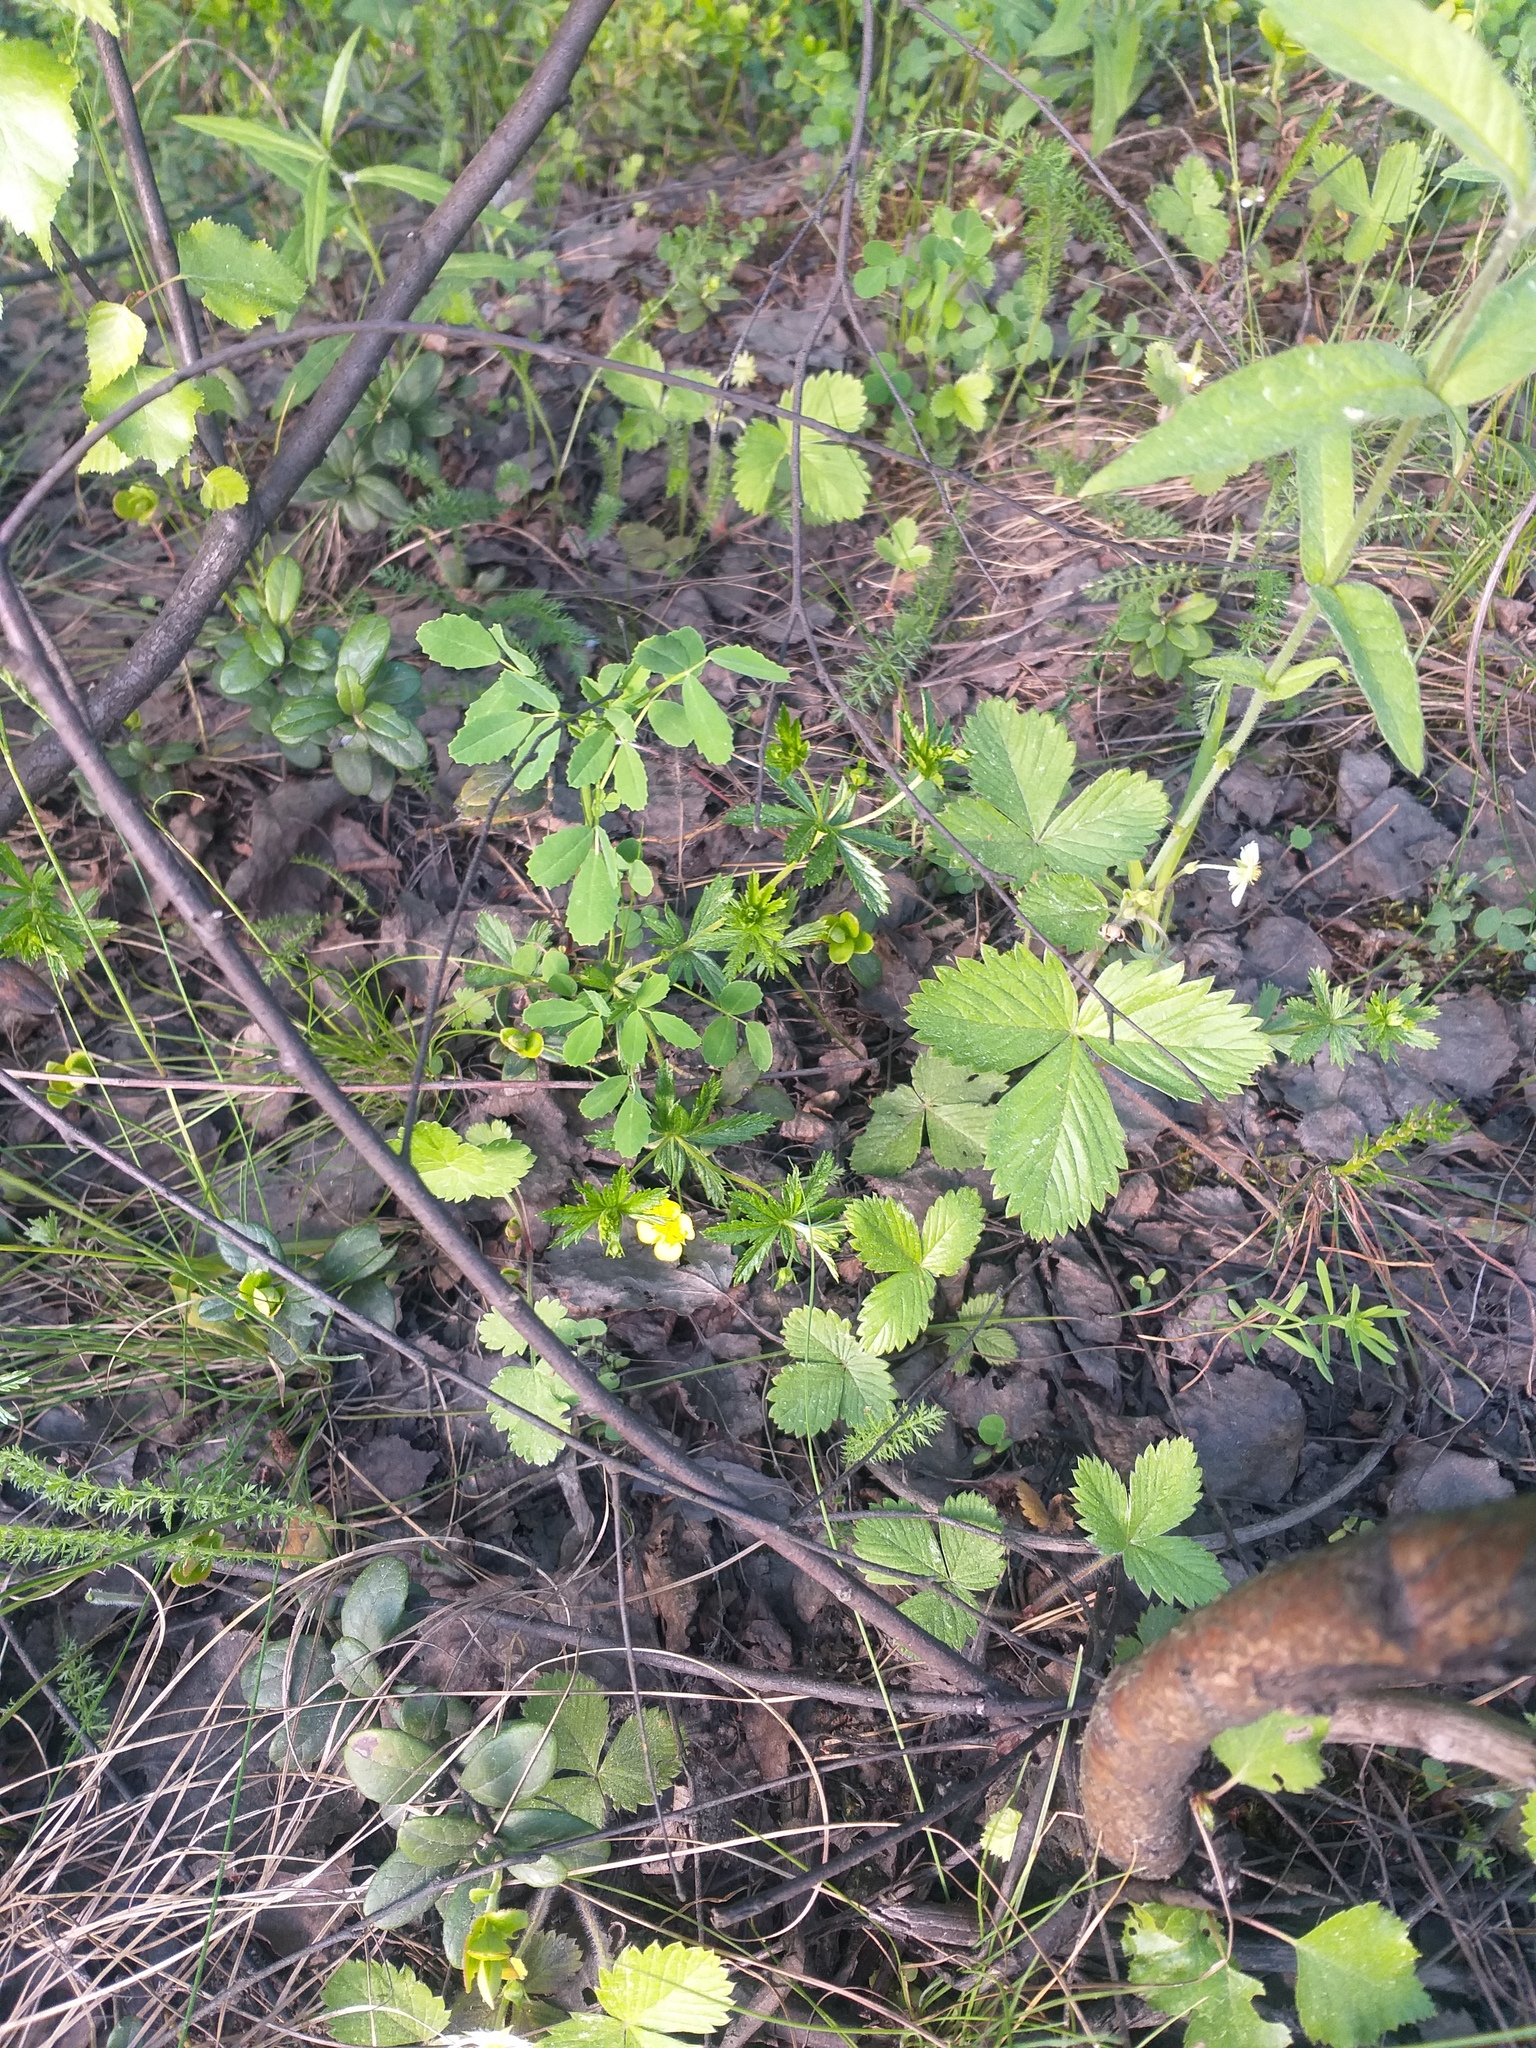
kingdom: Plantae
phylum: Tracheophyta
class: Magnoliopsida
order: Rosales
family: Rosaceae
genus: Potentilla
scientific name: Potentilla erecta
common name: Tormentil
